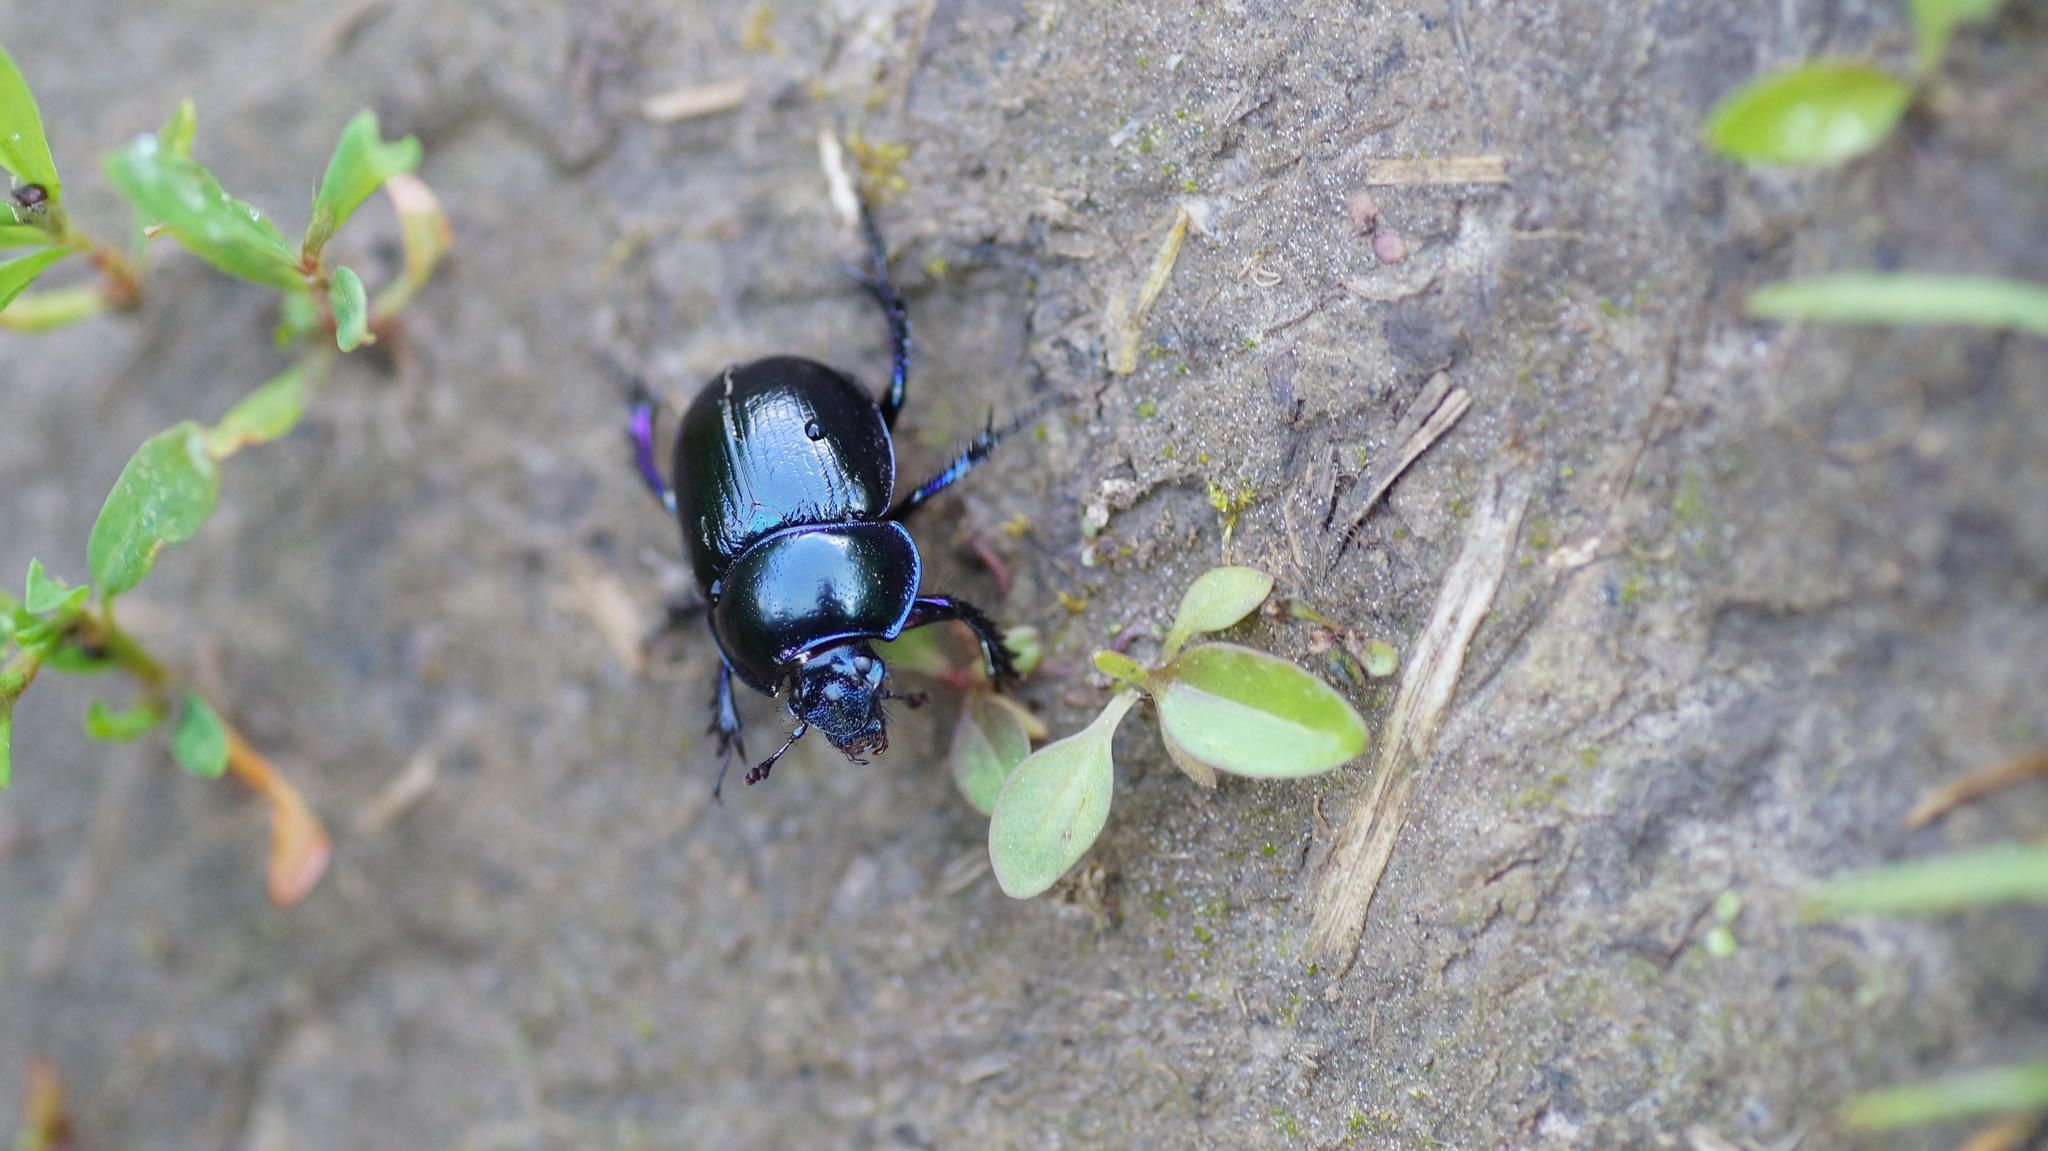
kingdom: Animalia
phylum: Arthropoda
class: Insecta
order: Coleoptera
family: Geotrupidae
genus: Anoplotrupes
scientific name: Anoplotrupes stercorosus
